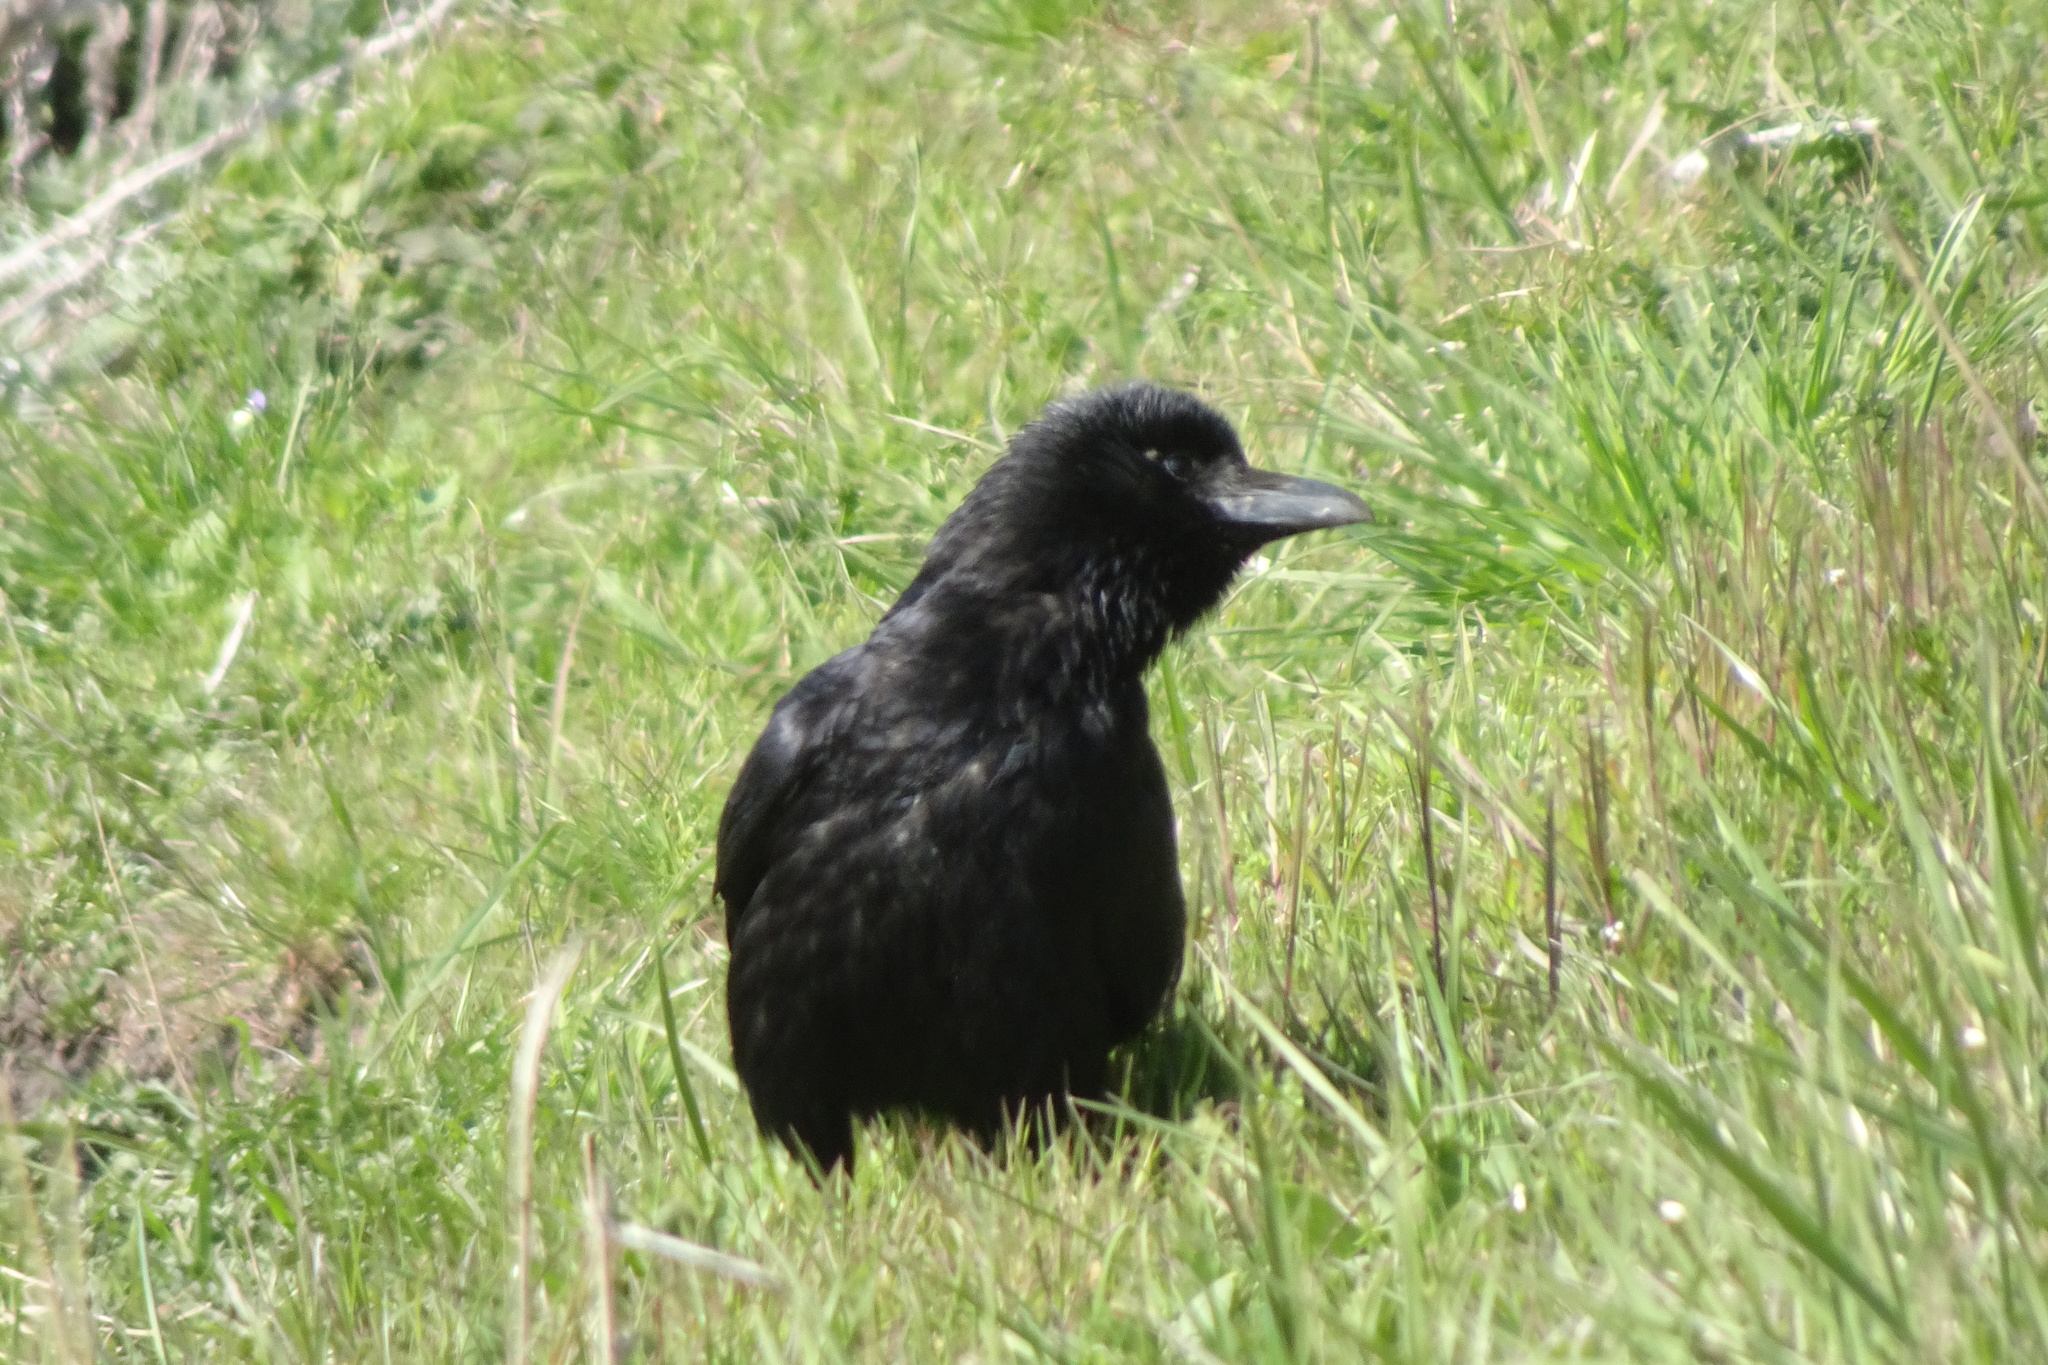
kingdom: Animalia
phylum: Chordata
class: Aves
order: Passeriformes
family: Corvidae
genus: Corvus
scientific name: Corvus corone
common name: Carrion crow
